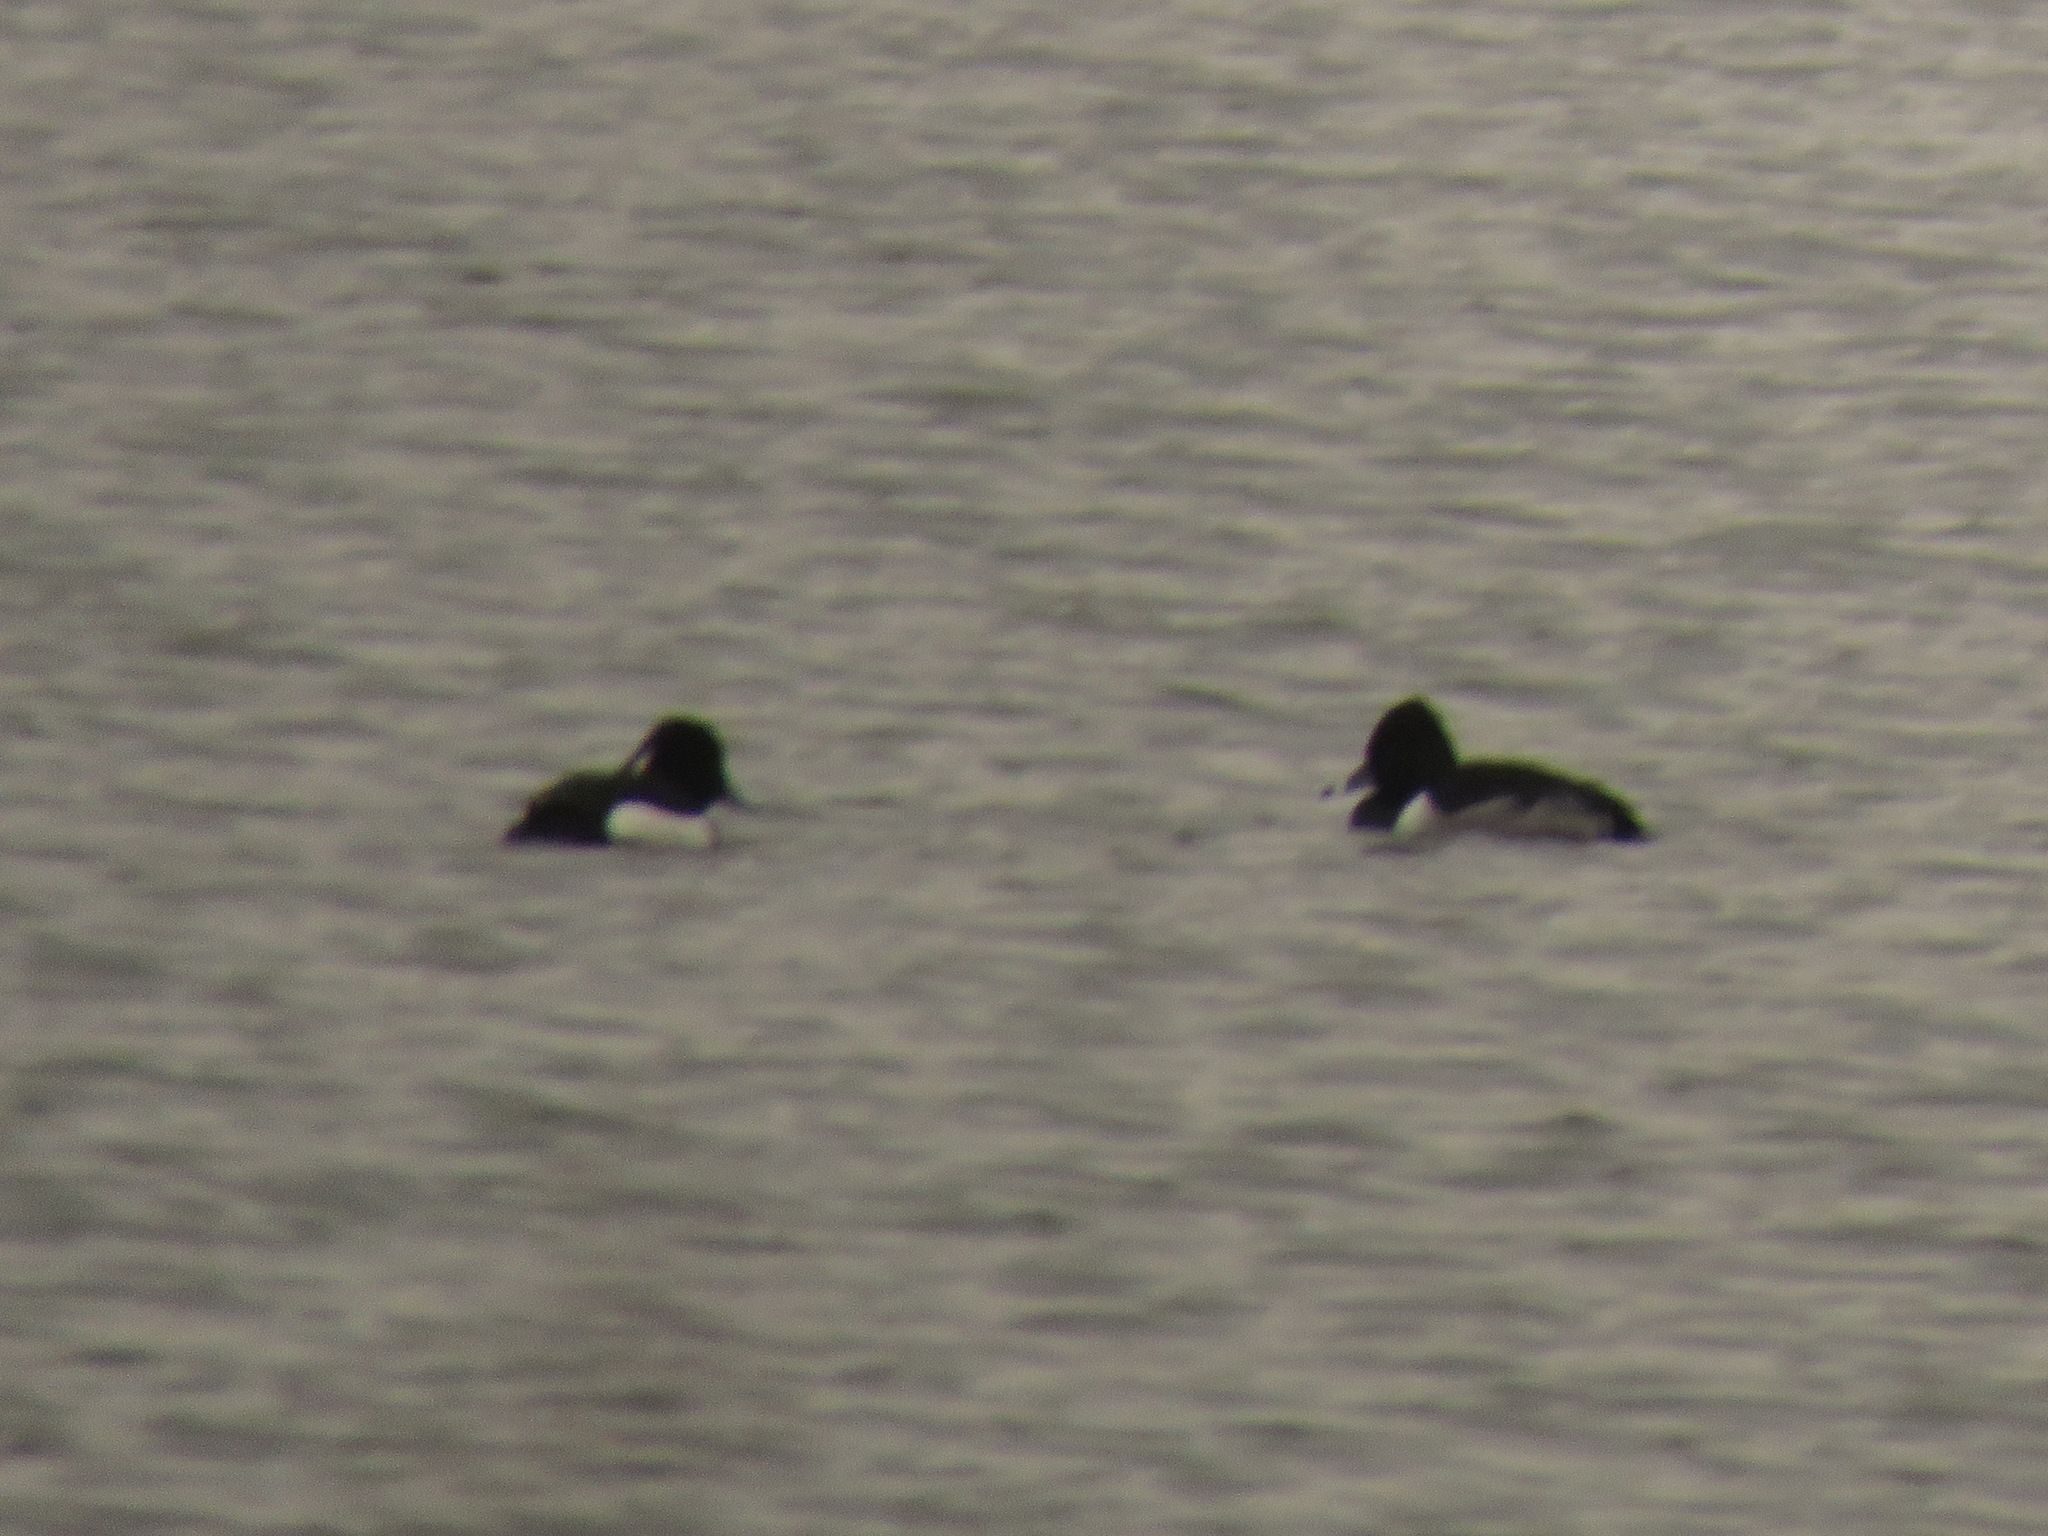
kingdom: Animalia
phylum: Chordata
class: Aves
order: Anseriformes
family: Anatidae
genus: Aythya
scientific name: Aythya fuligula
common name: Tufted duck
